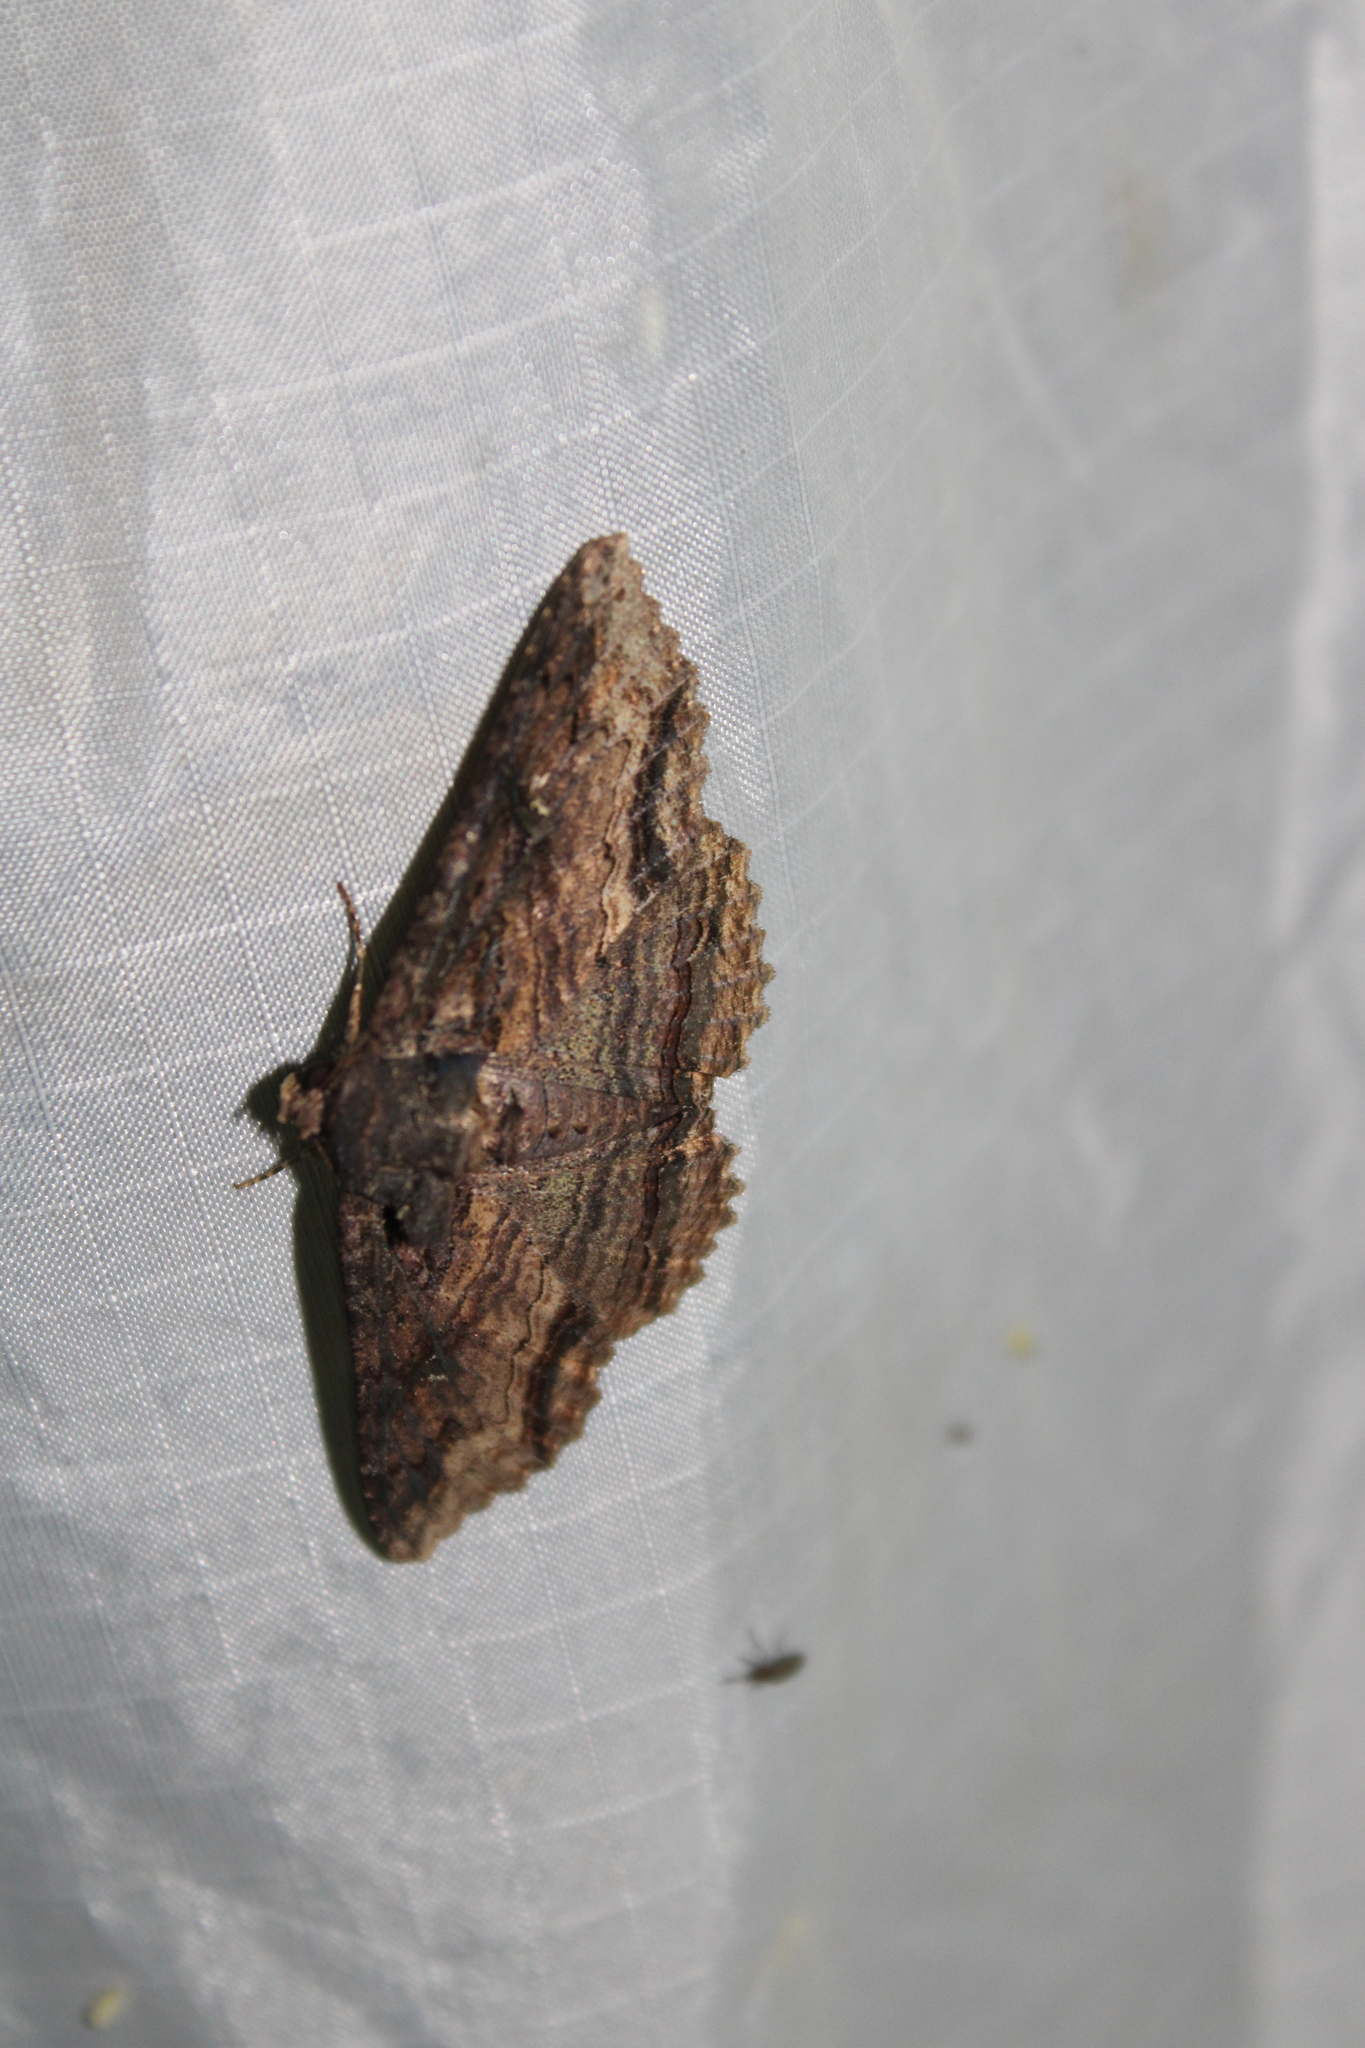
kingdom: Animalia
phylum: Arthropoda
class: Insecta
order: Lepidoptera
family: Erebidae
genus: Zale
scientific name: Zale lunata
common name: Lunate zale moth
